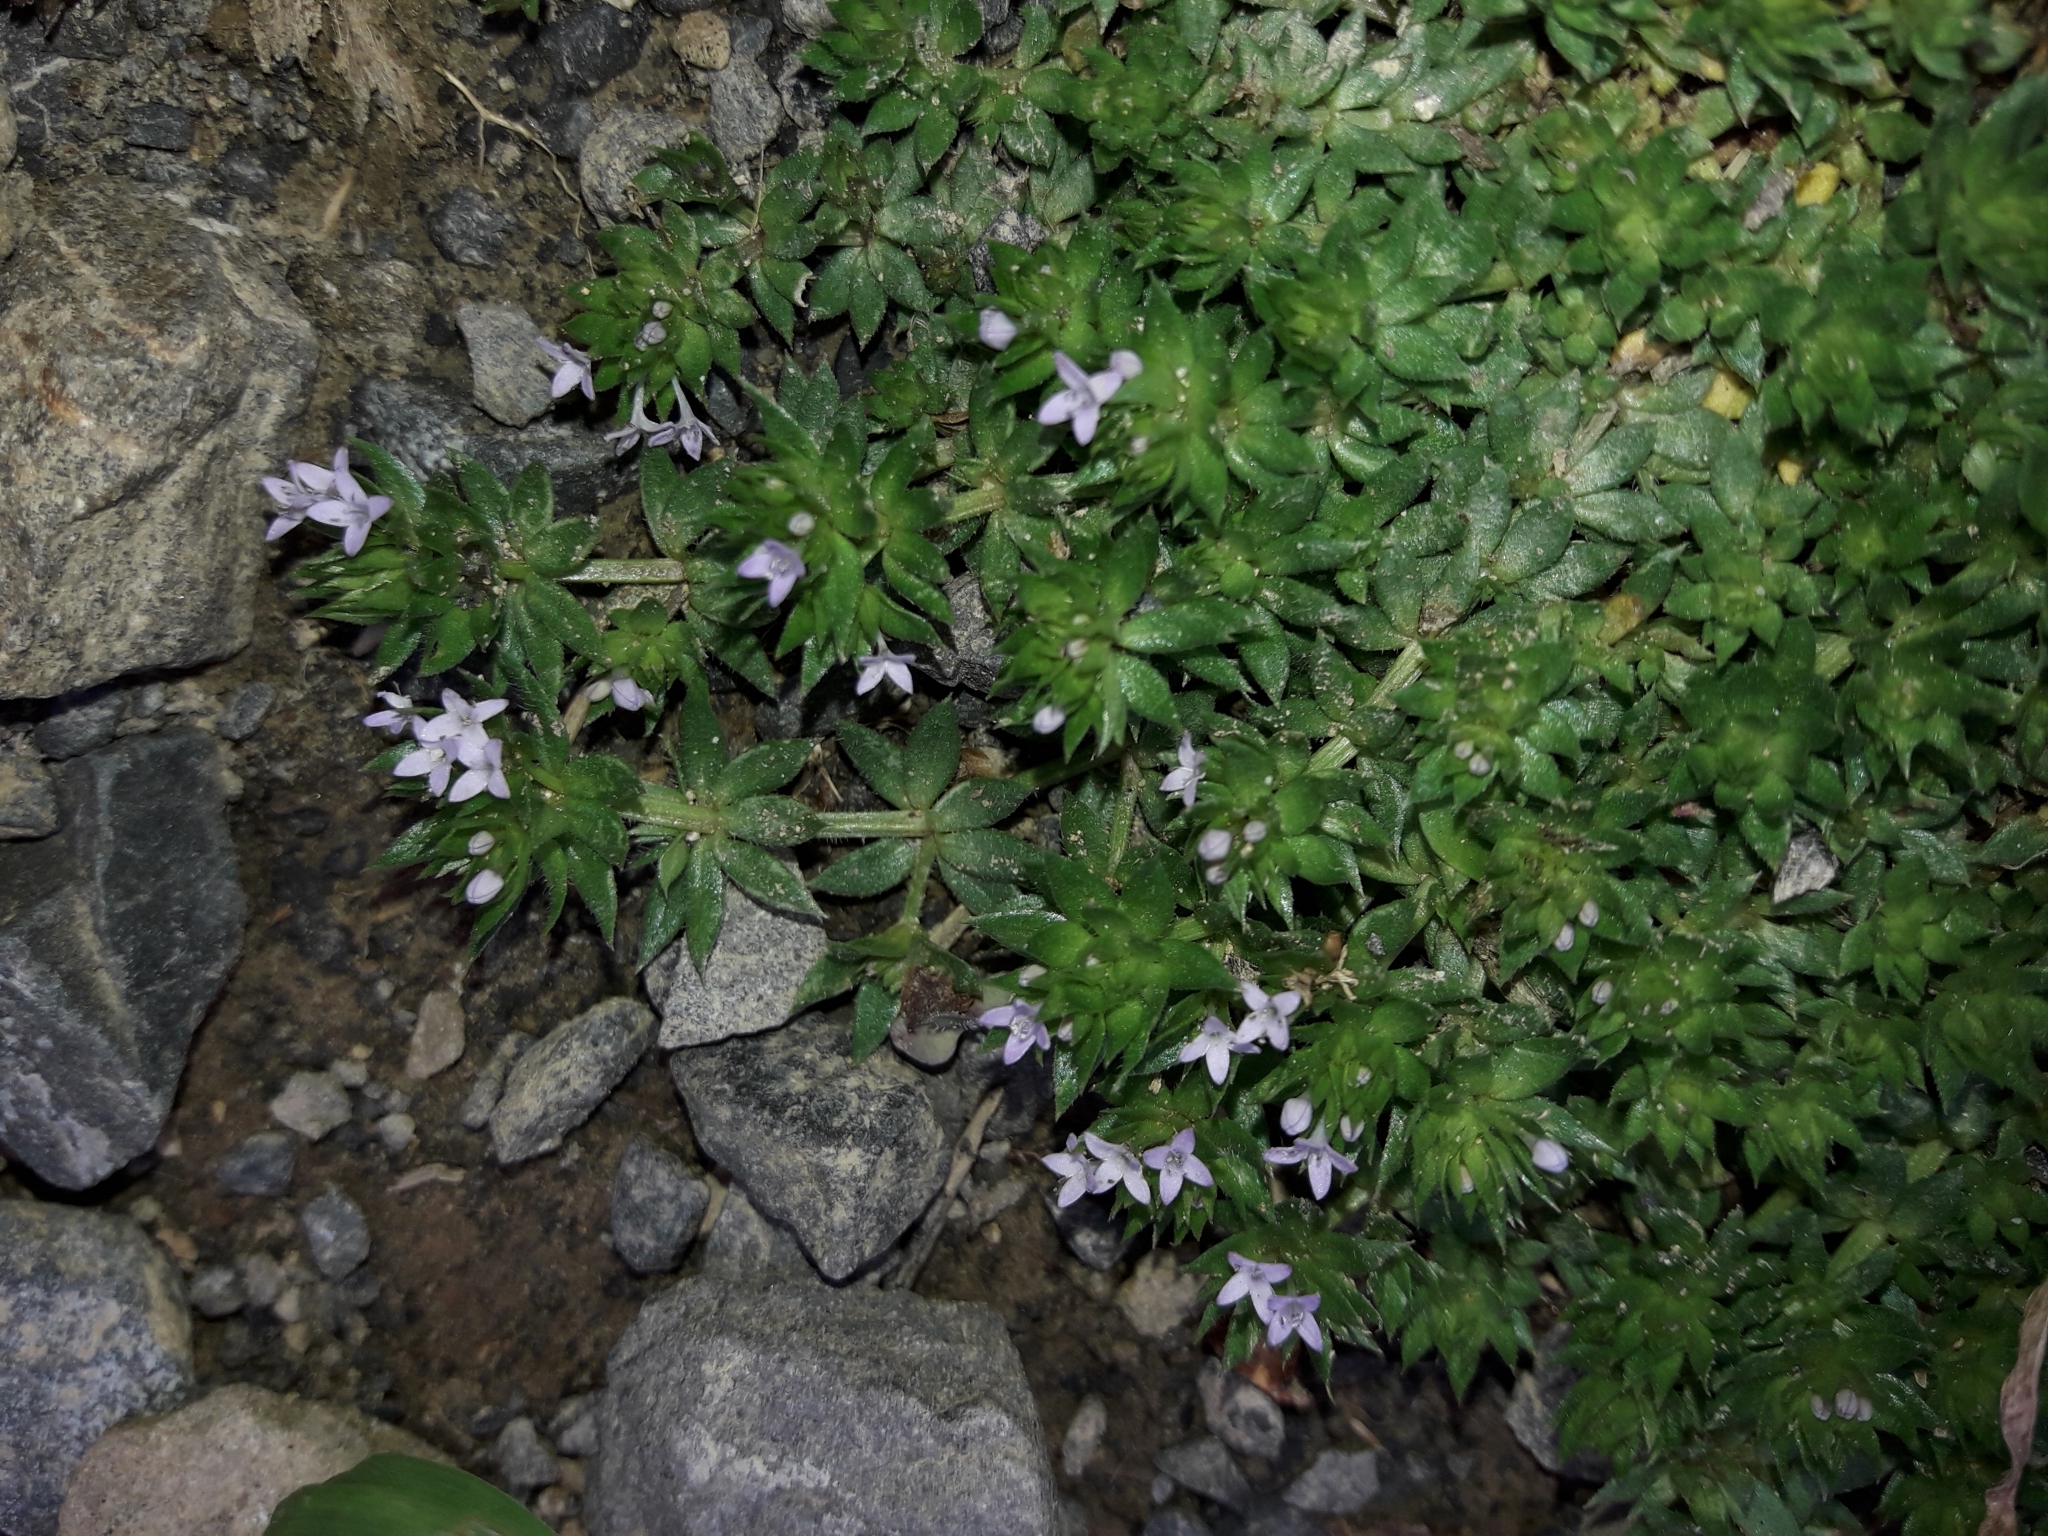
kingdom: Plantae
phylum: Tracheophyta
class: Magnoliopsida
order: Gentianales
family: Rubiaceae
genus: Sherardia
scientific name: Sherardia arvensis
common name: Field madder
